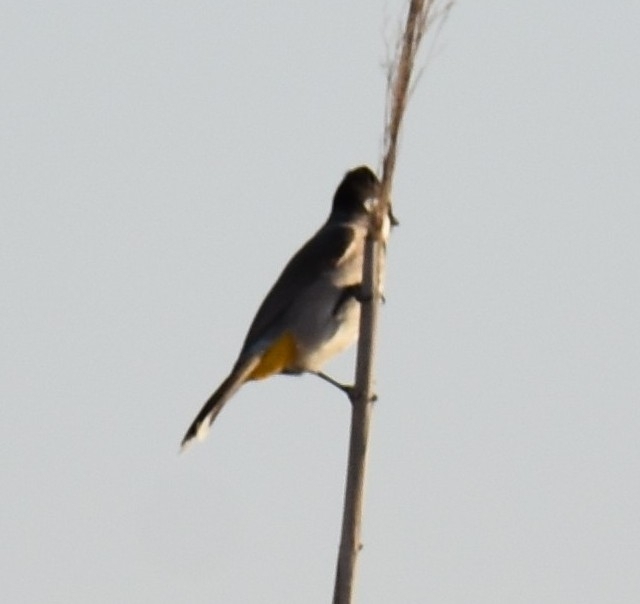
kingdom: Animalia
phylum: Chordata
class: Aves
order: Passeriformes
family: Pycnonotidae
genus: Pycnonotus
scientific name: Pycnonotus leucotis
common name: White-eared bulbul
